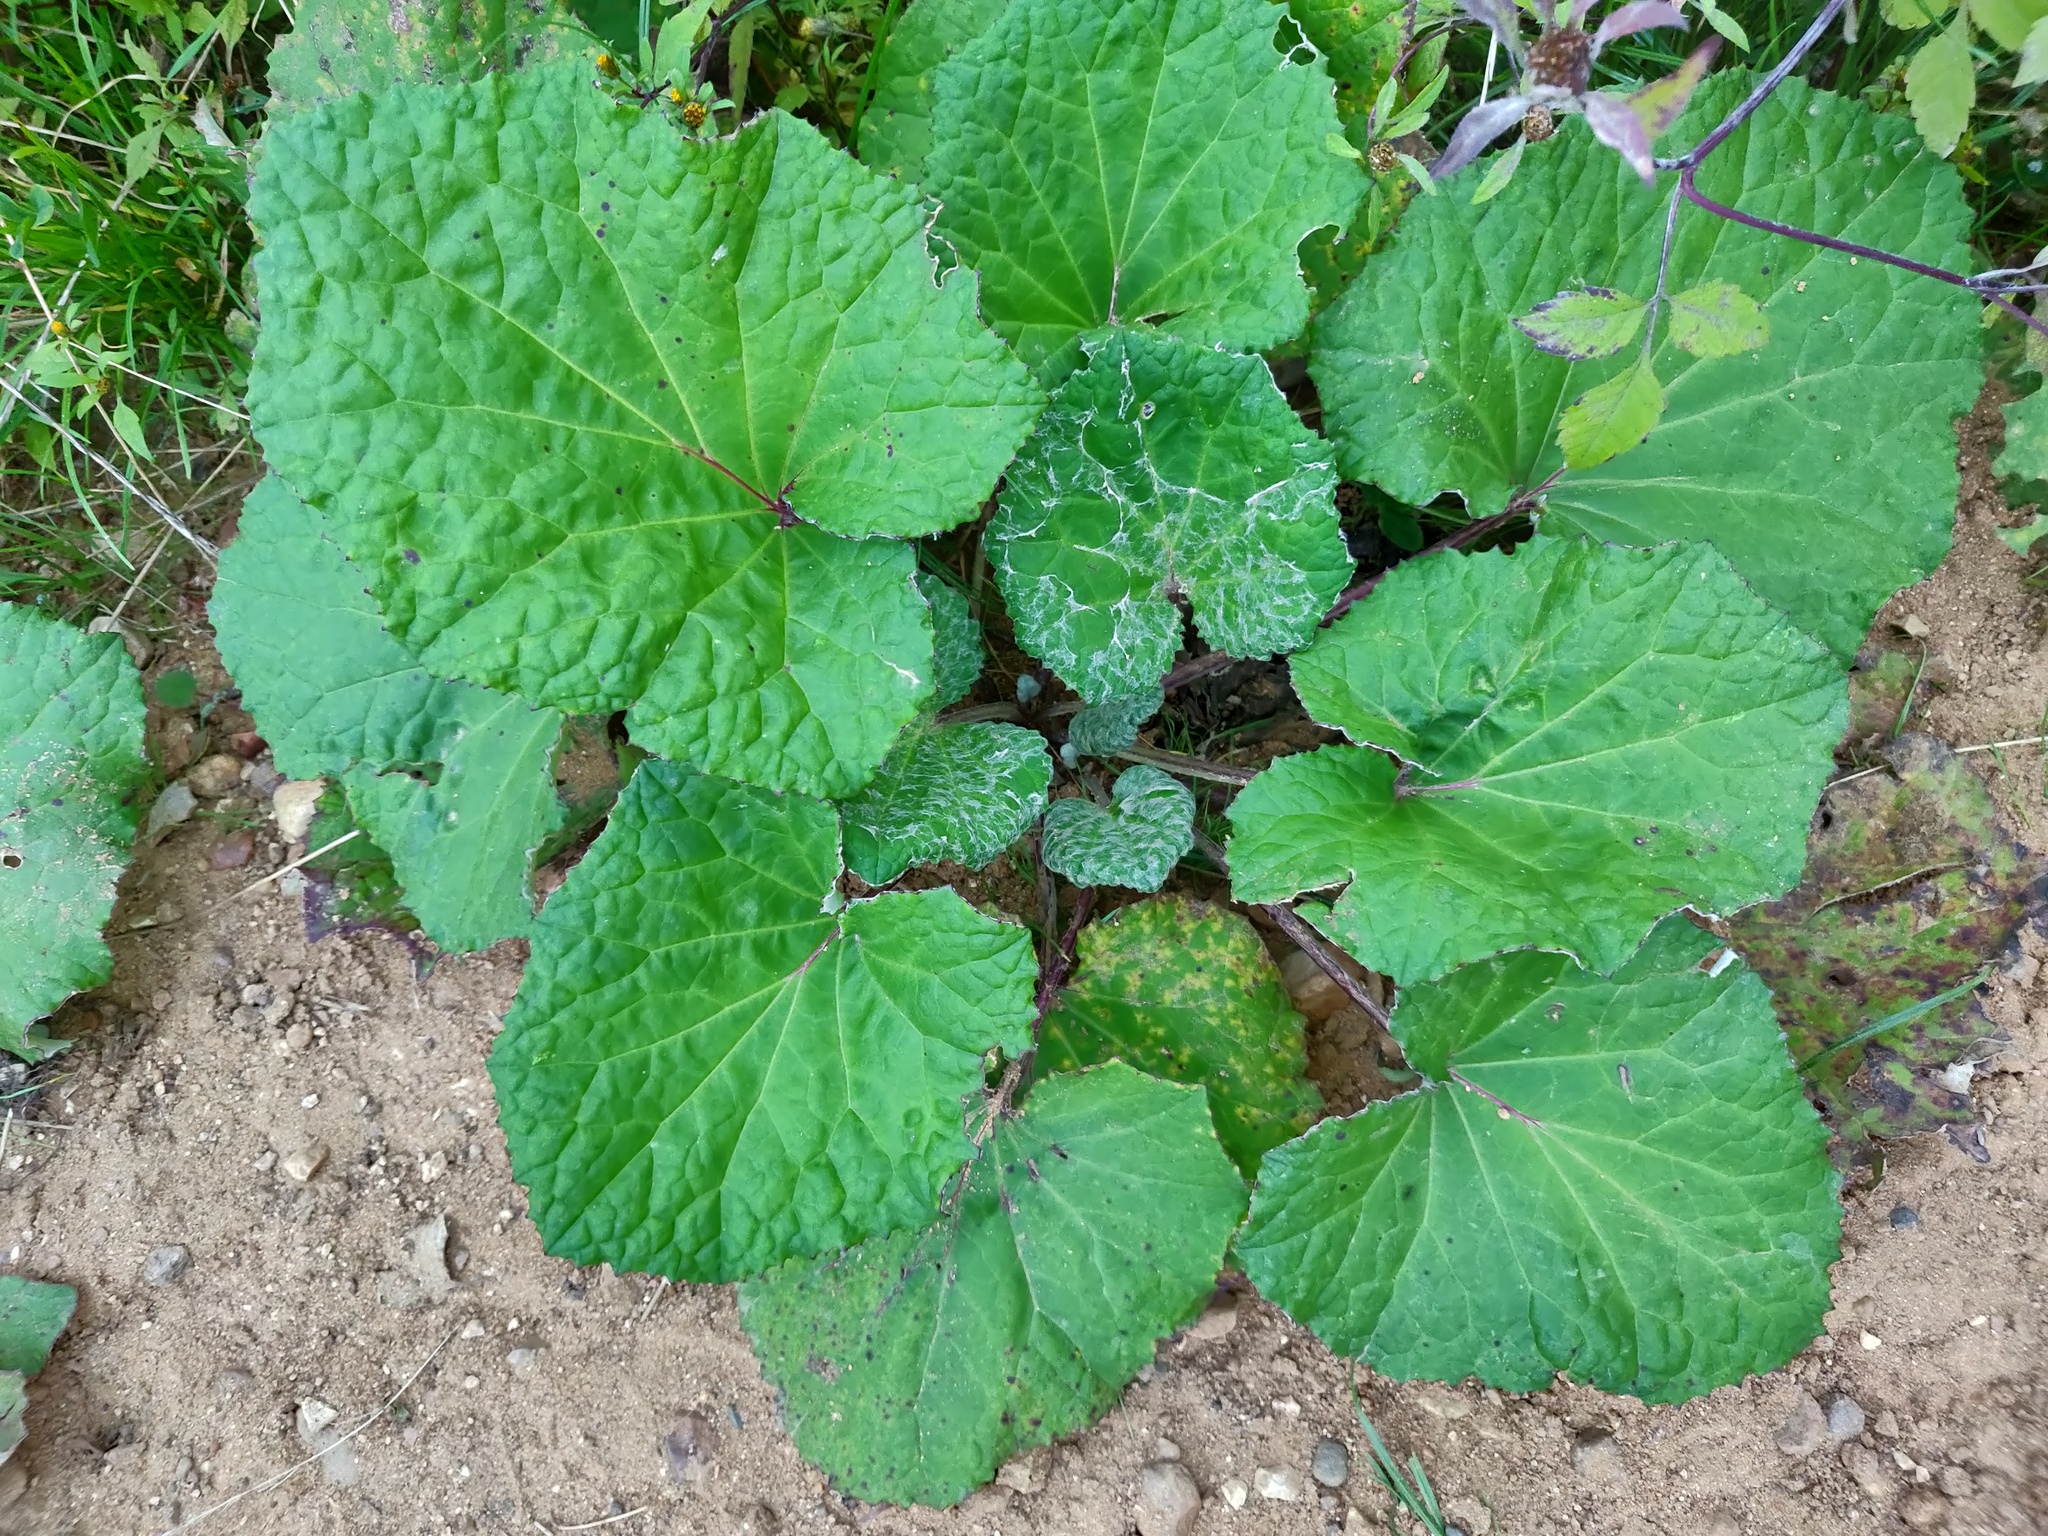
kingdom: Plantae
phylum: Tracheophyta
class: Magnoliopsida
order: Asterales
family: Asteraceae
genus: Tussilago
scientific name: Tussilago farfara
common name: Coltsfoot
